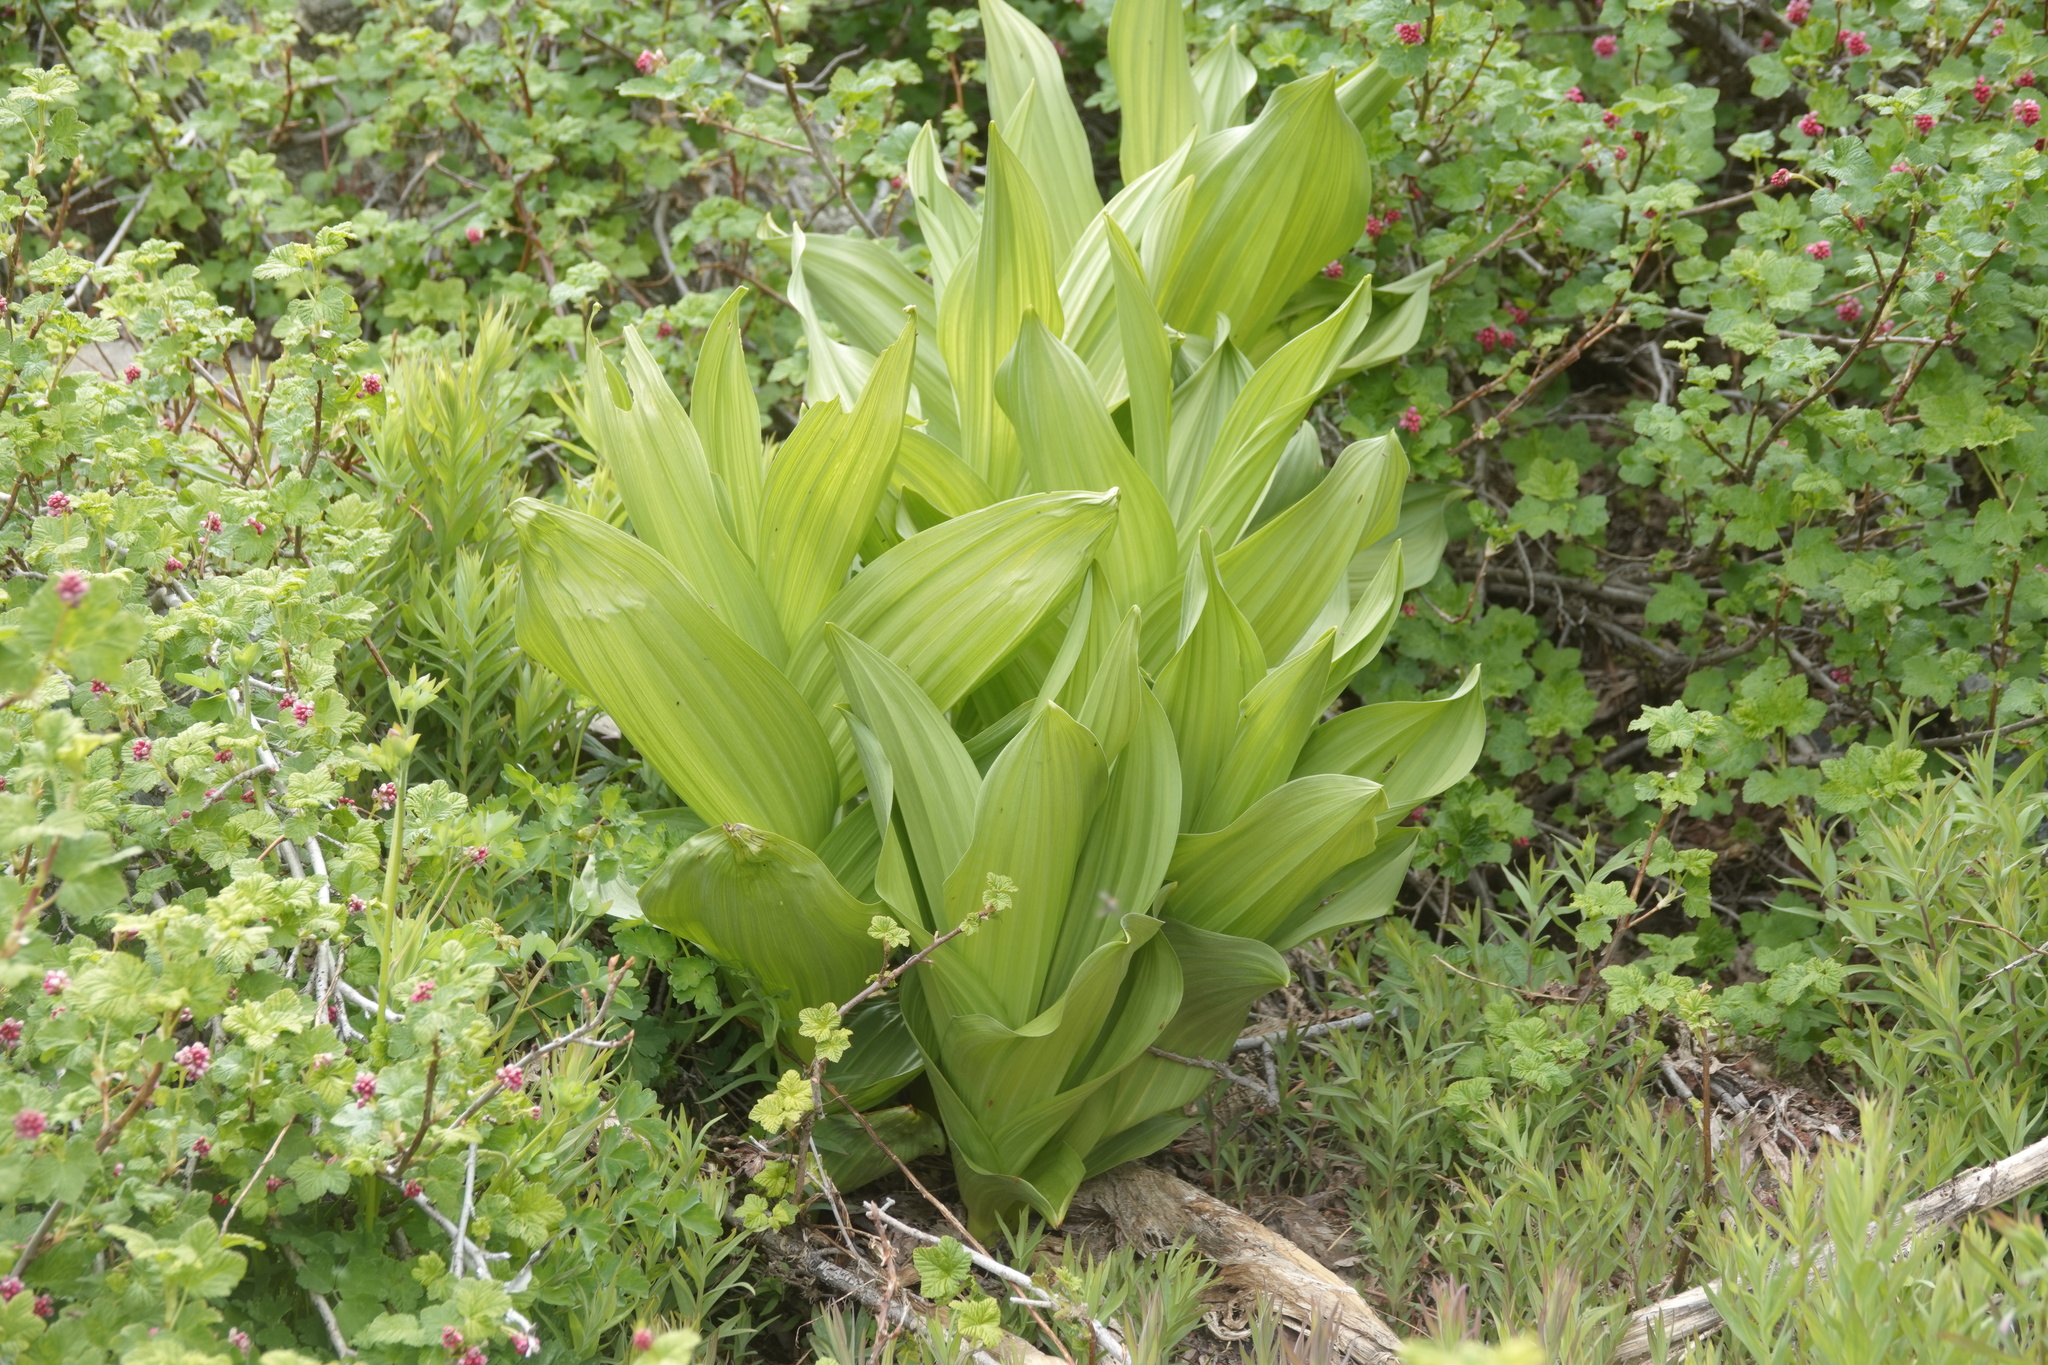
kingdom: Plantae
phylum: Tracheophyta
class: Liliopsida
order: Liliales
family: Melanthiaceae
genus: Veratrum
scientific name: Veratrum californicum
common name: California veratrum
